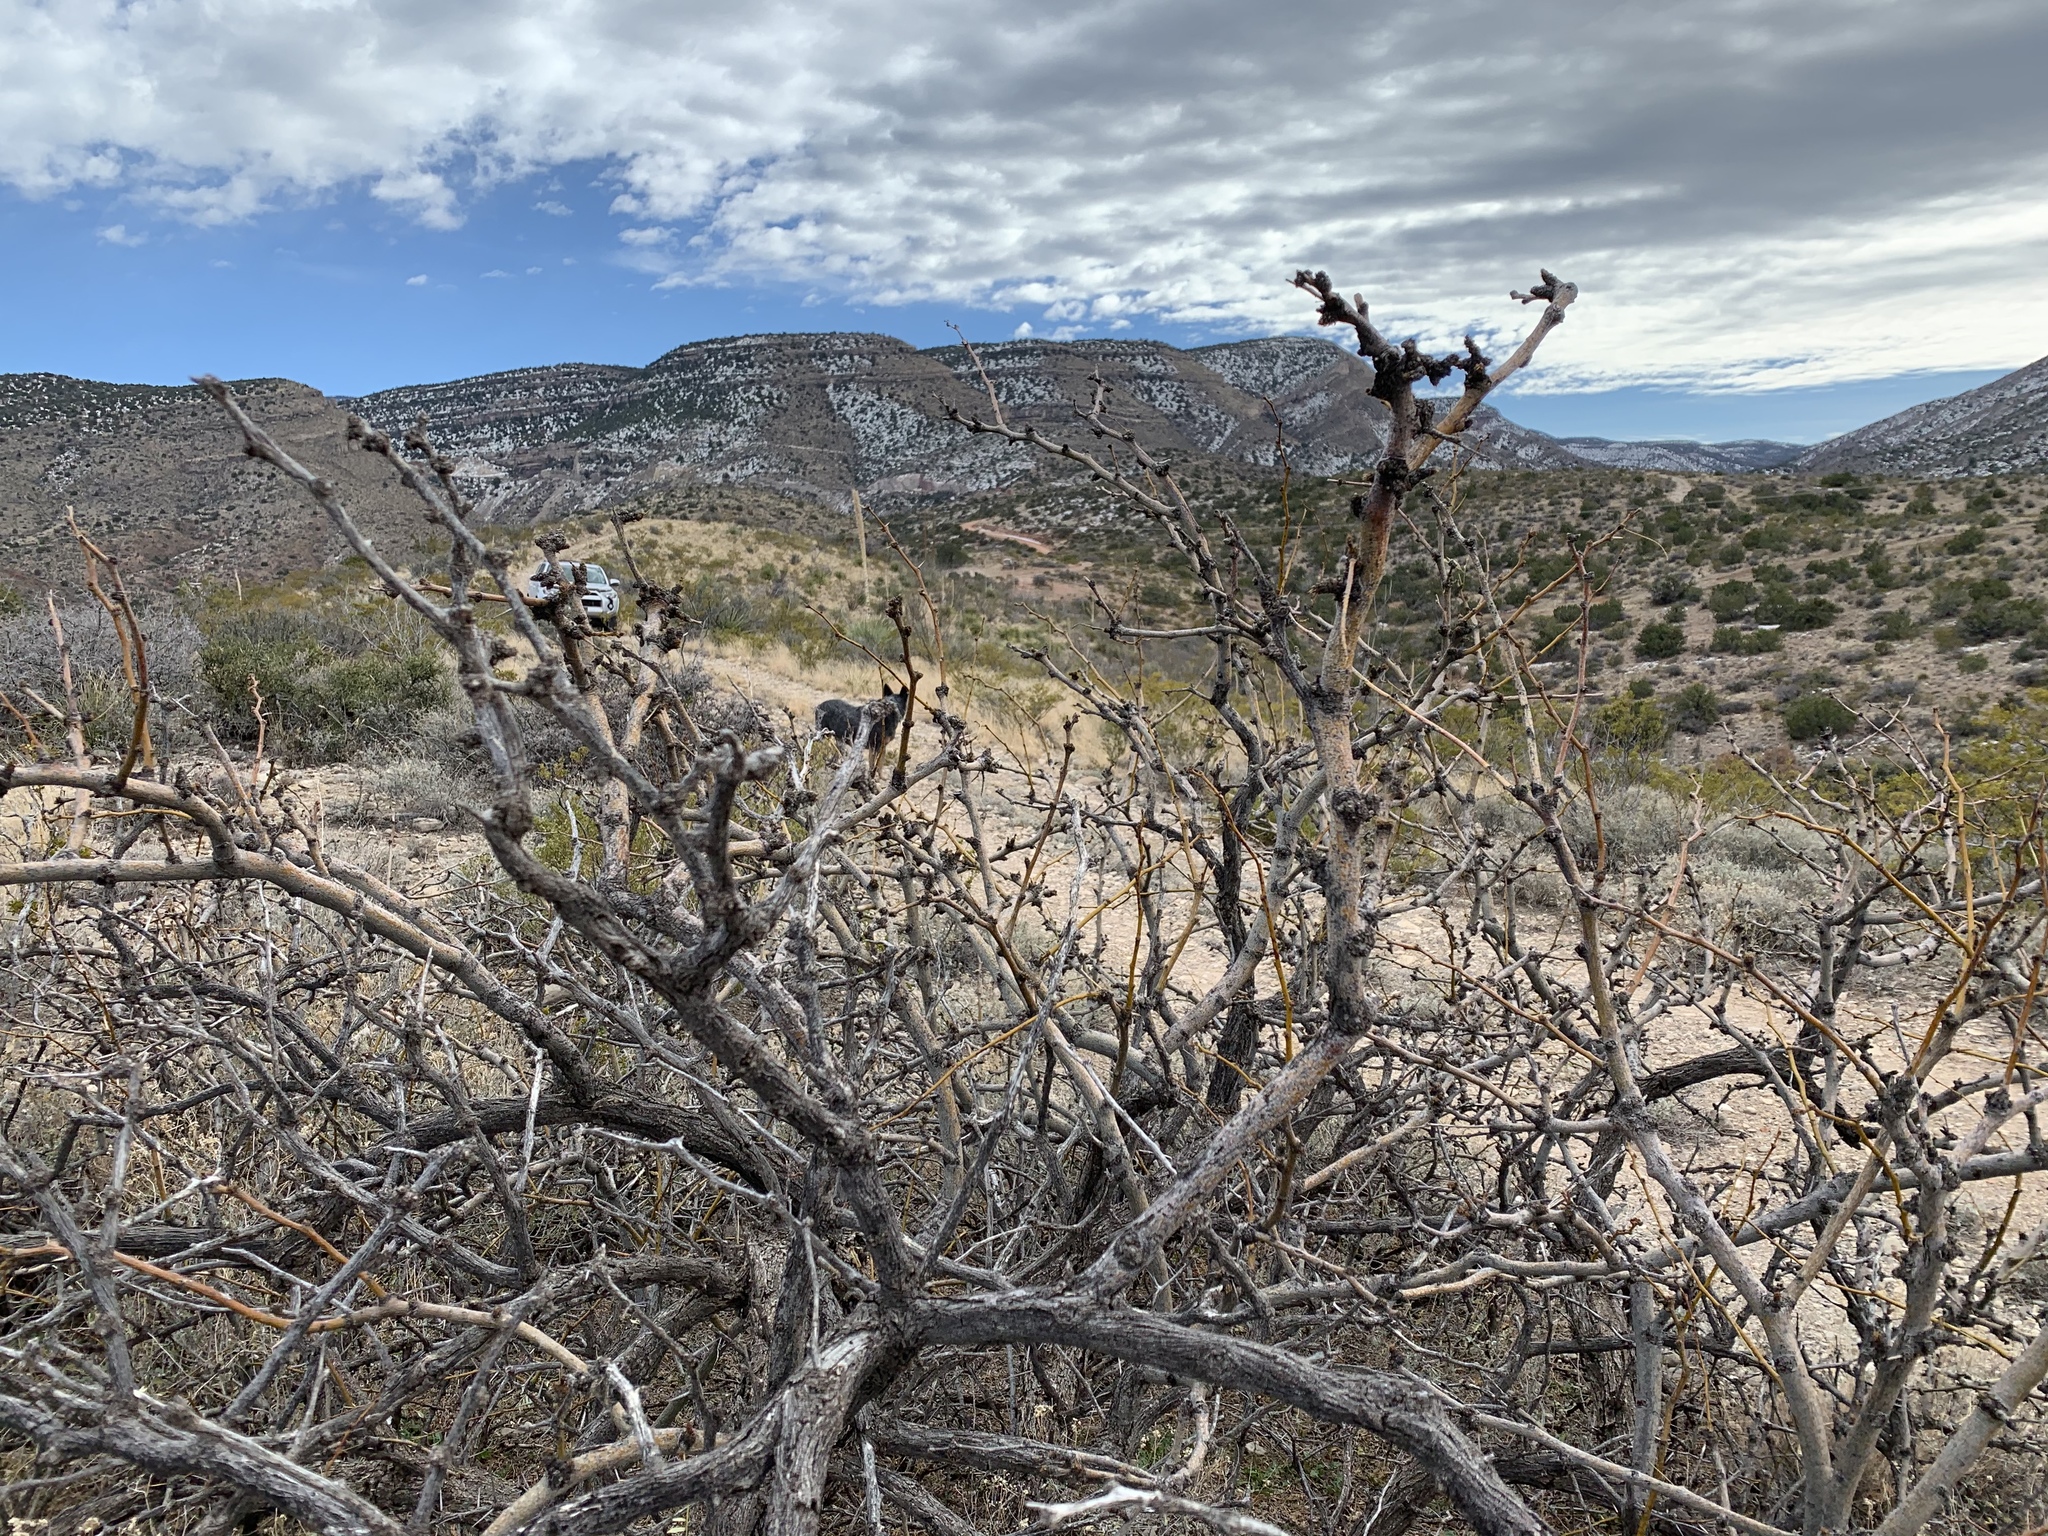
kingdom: Plantae
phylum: Tracheophyta
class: Magnoliopsida
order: Fabales
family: Fabaceae
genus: Prosopis
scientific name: Prosopis glandulosa
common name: Honey mesquite
